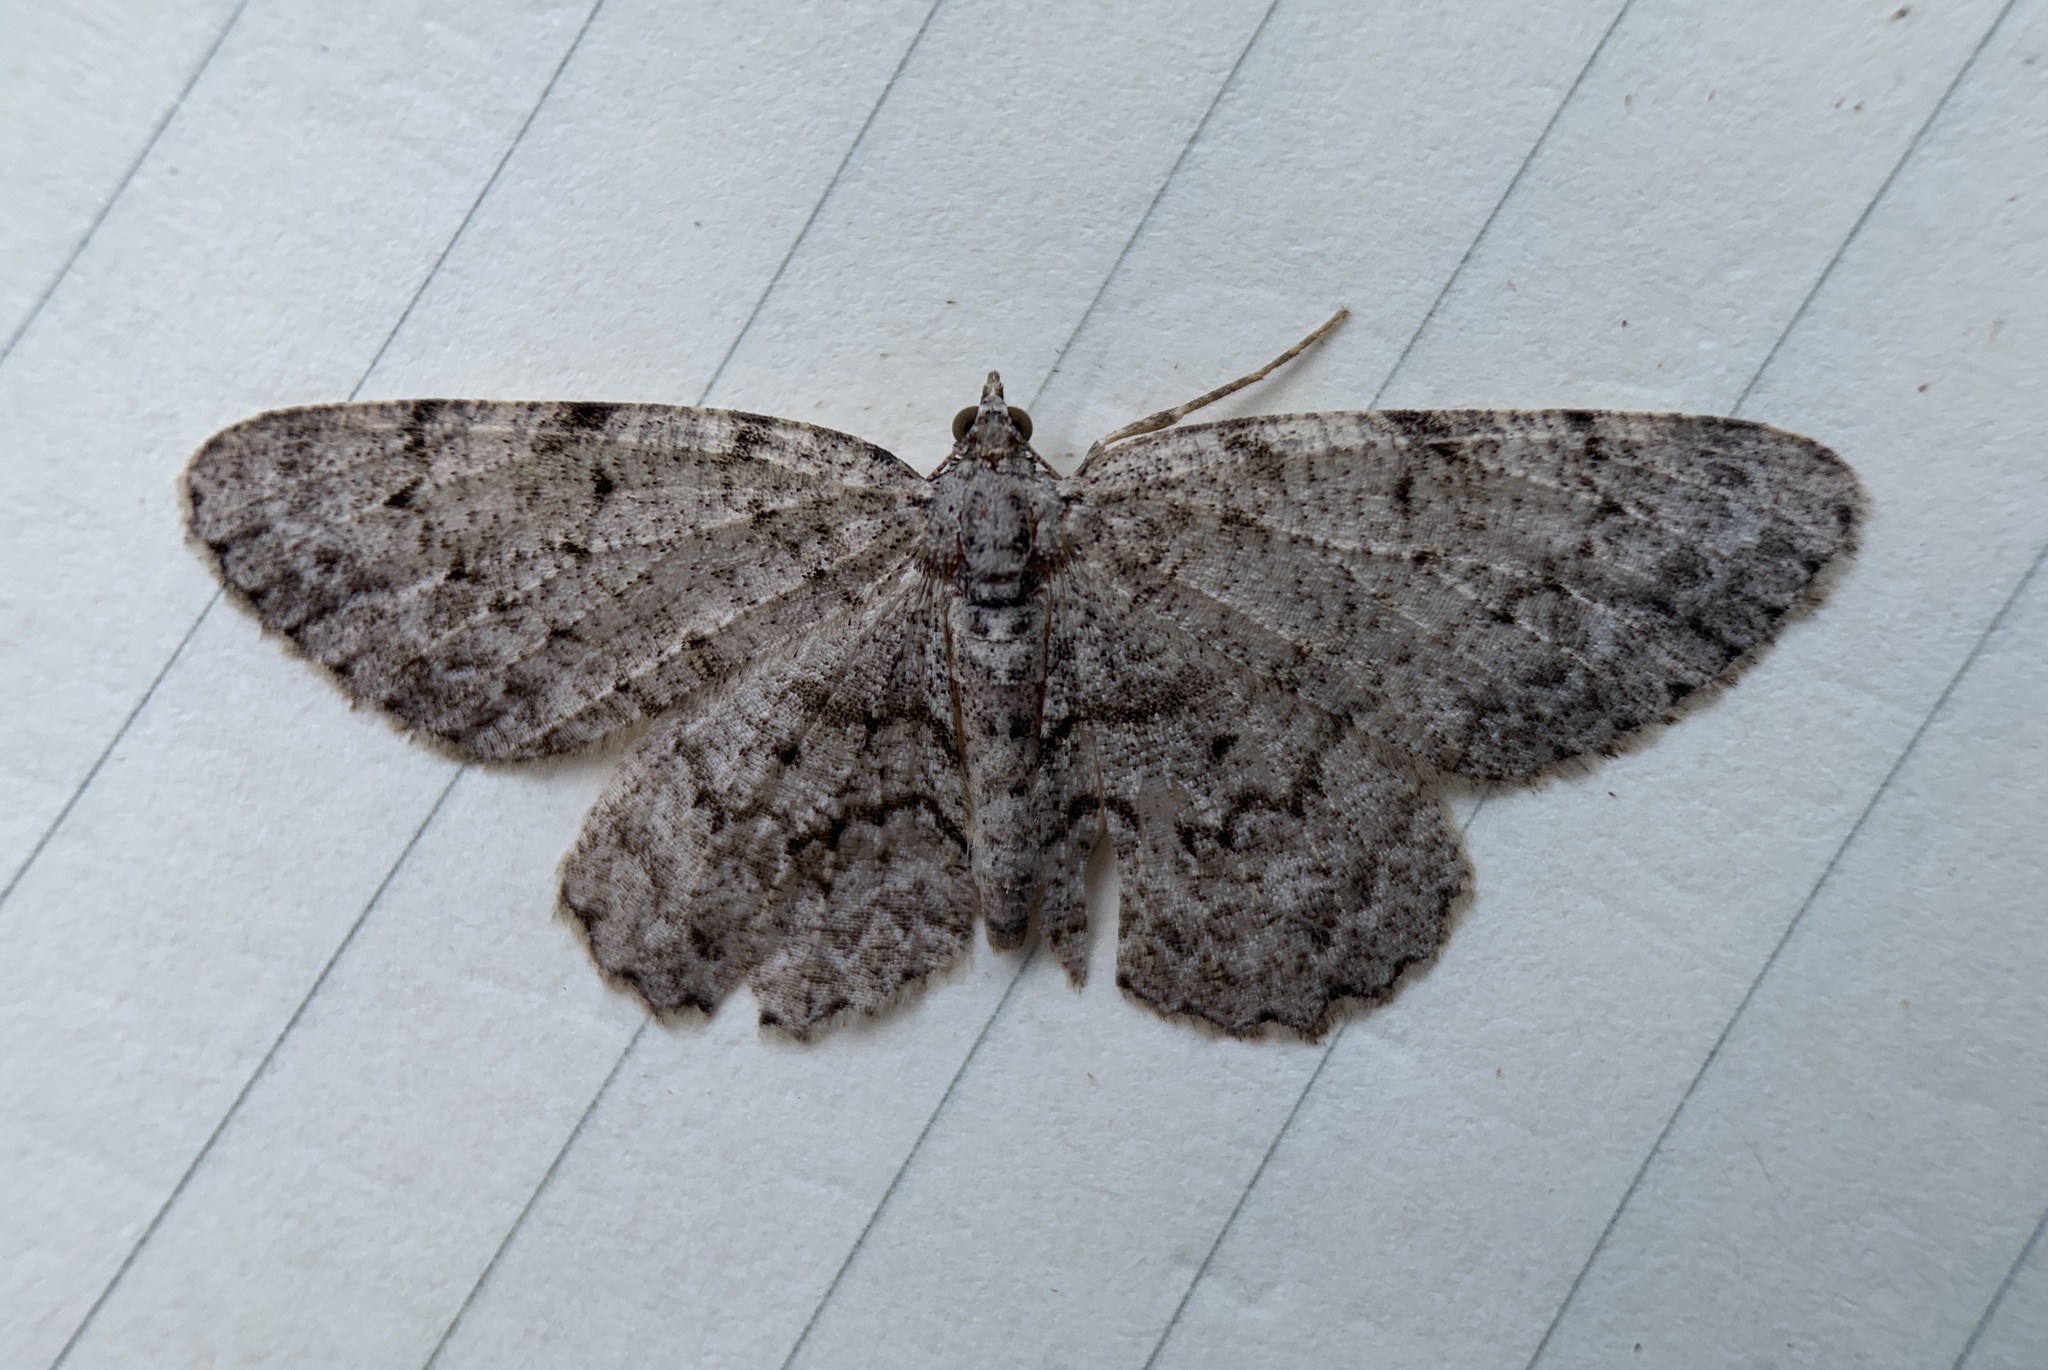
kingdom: Animalia
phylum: Arthropoda
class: Insecta
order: Lepidoptera
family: Geometridae
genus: Protoboarmia
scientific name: Protoboarmia porcelaria
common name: Porcelain gray
